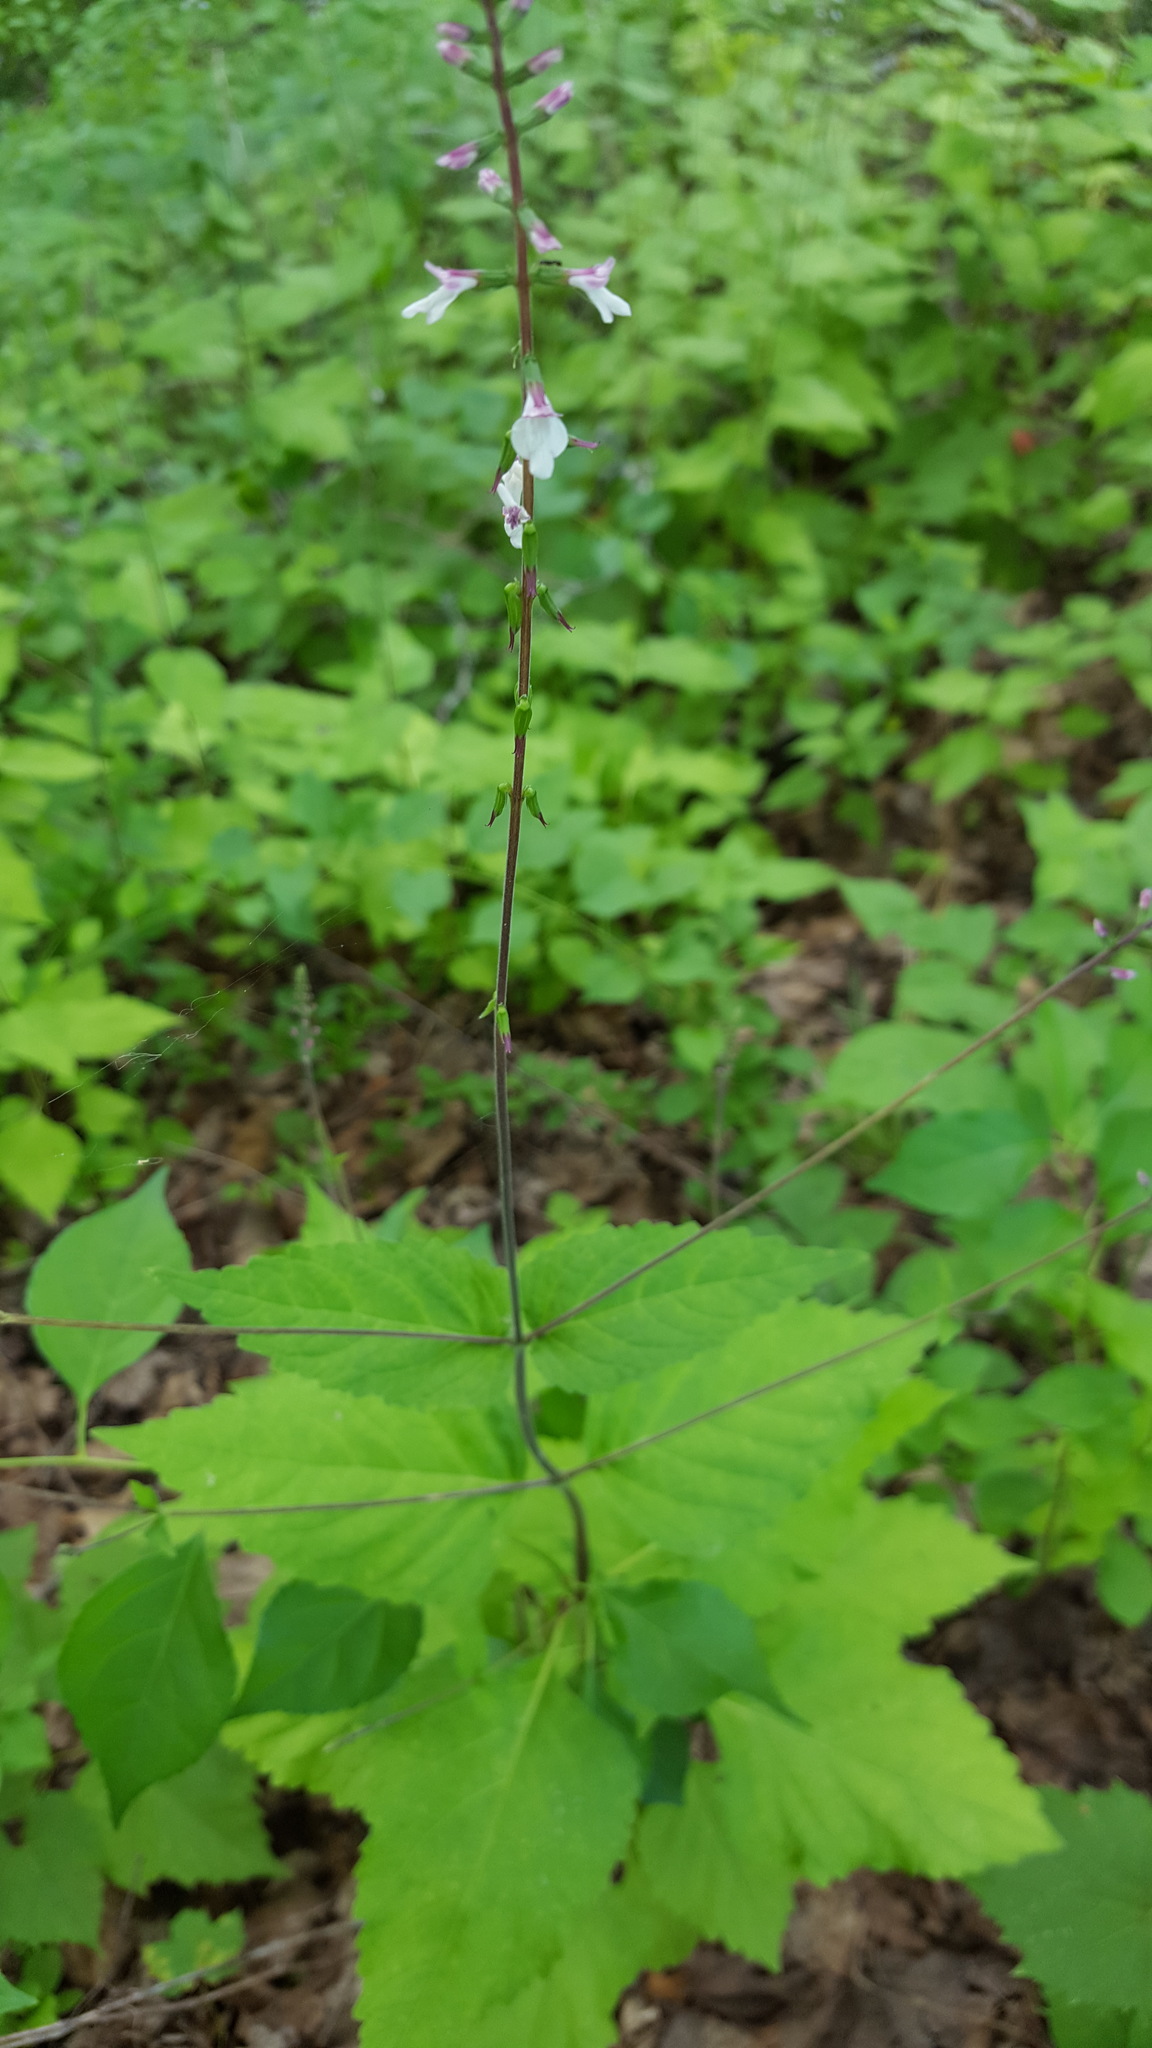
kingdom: Plantae
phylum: Tracheophyta
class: Magnoliopsida
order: Lamiales
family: Phrymaceae
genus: Phryma
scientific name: Phryma leptostachya
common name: American lopseed
